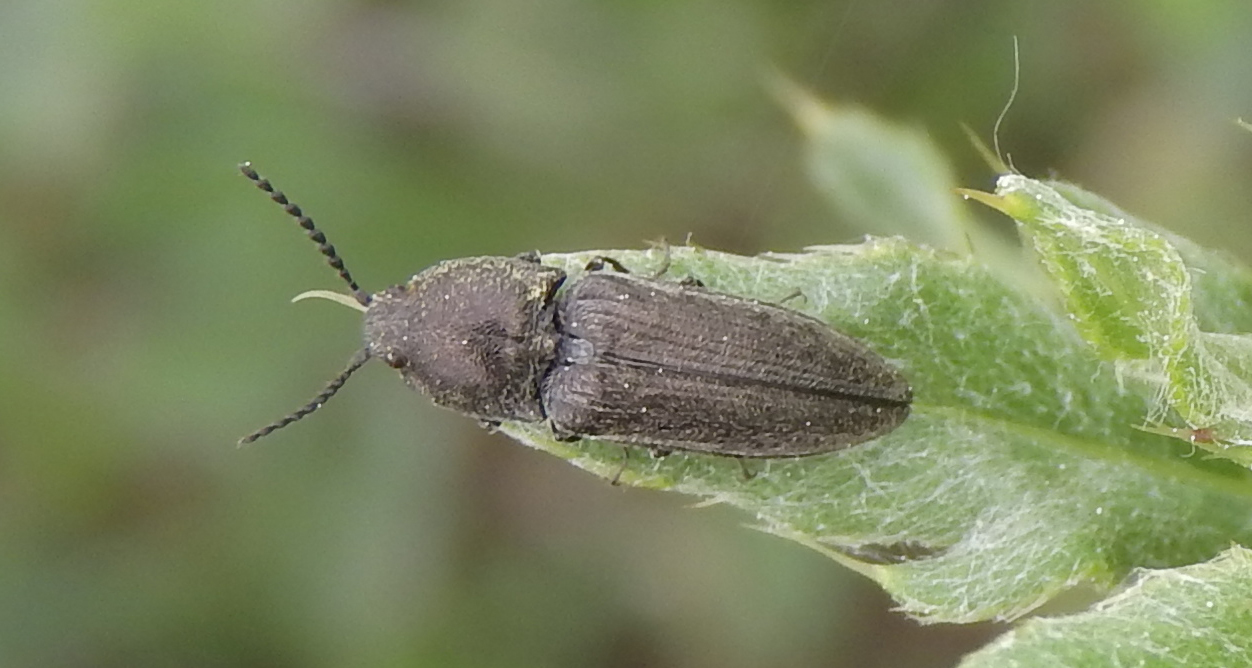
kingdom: Animalia
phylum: Arthropoda
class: Insecta
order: Coleoptera
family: Elateridae
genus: Cidnopus
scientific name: Cidnopus pilosus
